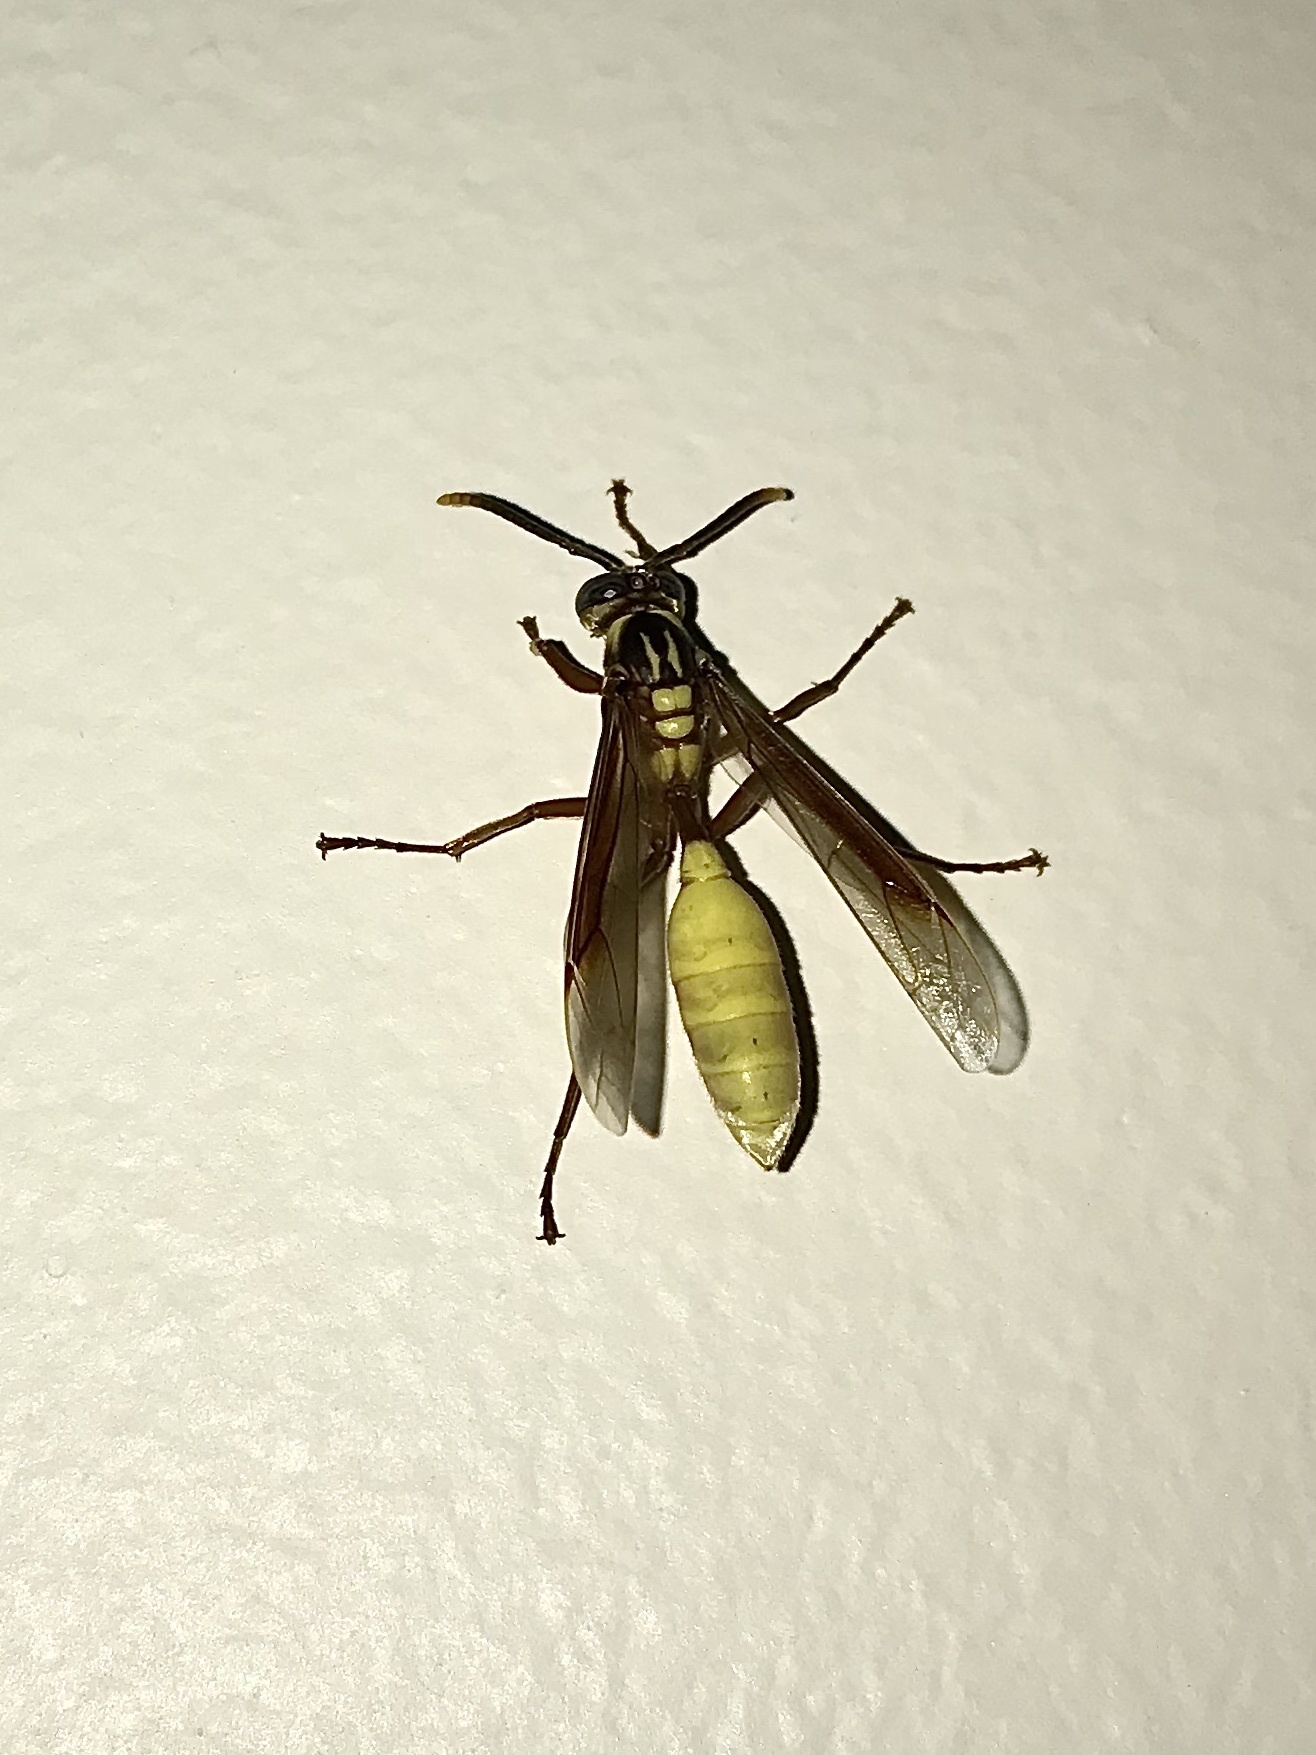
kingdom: Animalia
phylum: Arthropoda
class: Insecta
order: Hymenoptera
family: Vespidae
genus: Apoica
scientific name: Apoica pallens
